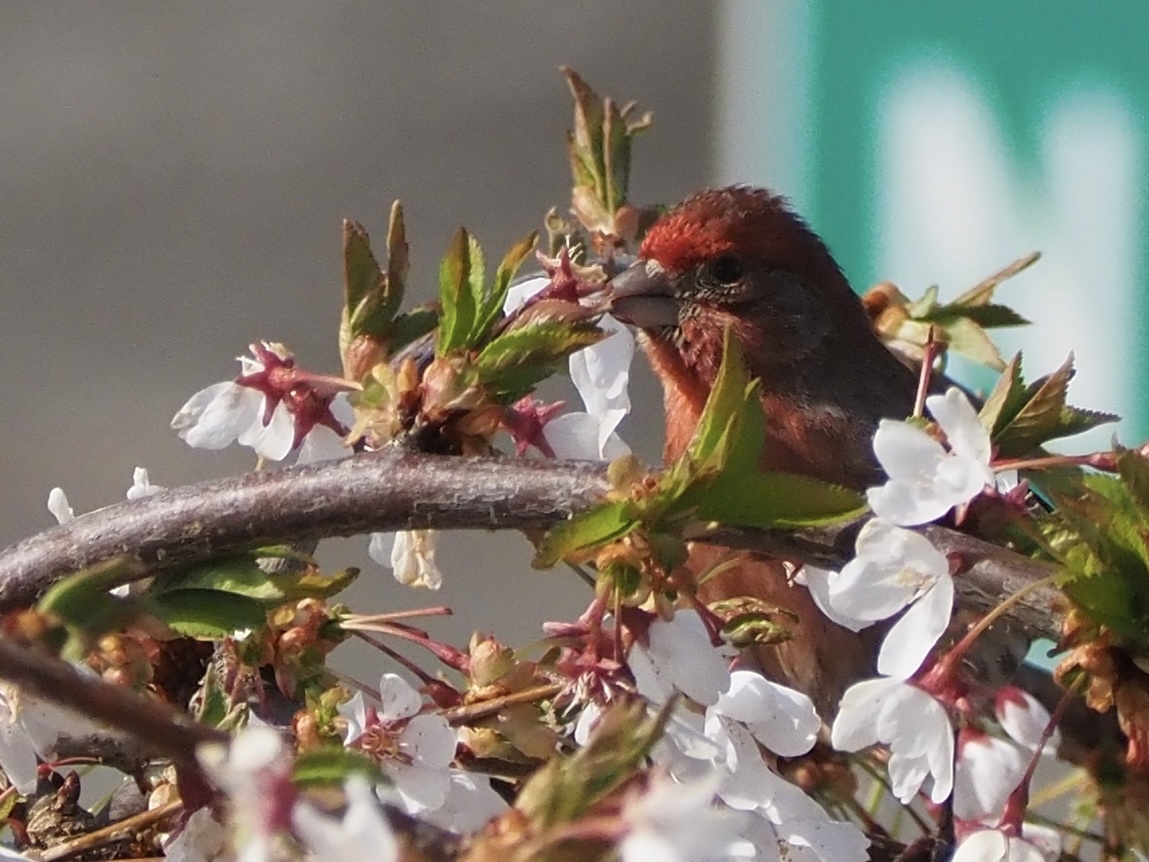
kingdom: Animalia
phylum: Chordata
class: Aves
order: Passeriformes
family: Fringillidae
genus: Haemorhous
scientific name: Haemorhous mexicanus
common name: House finch
